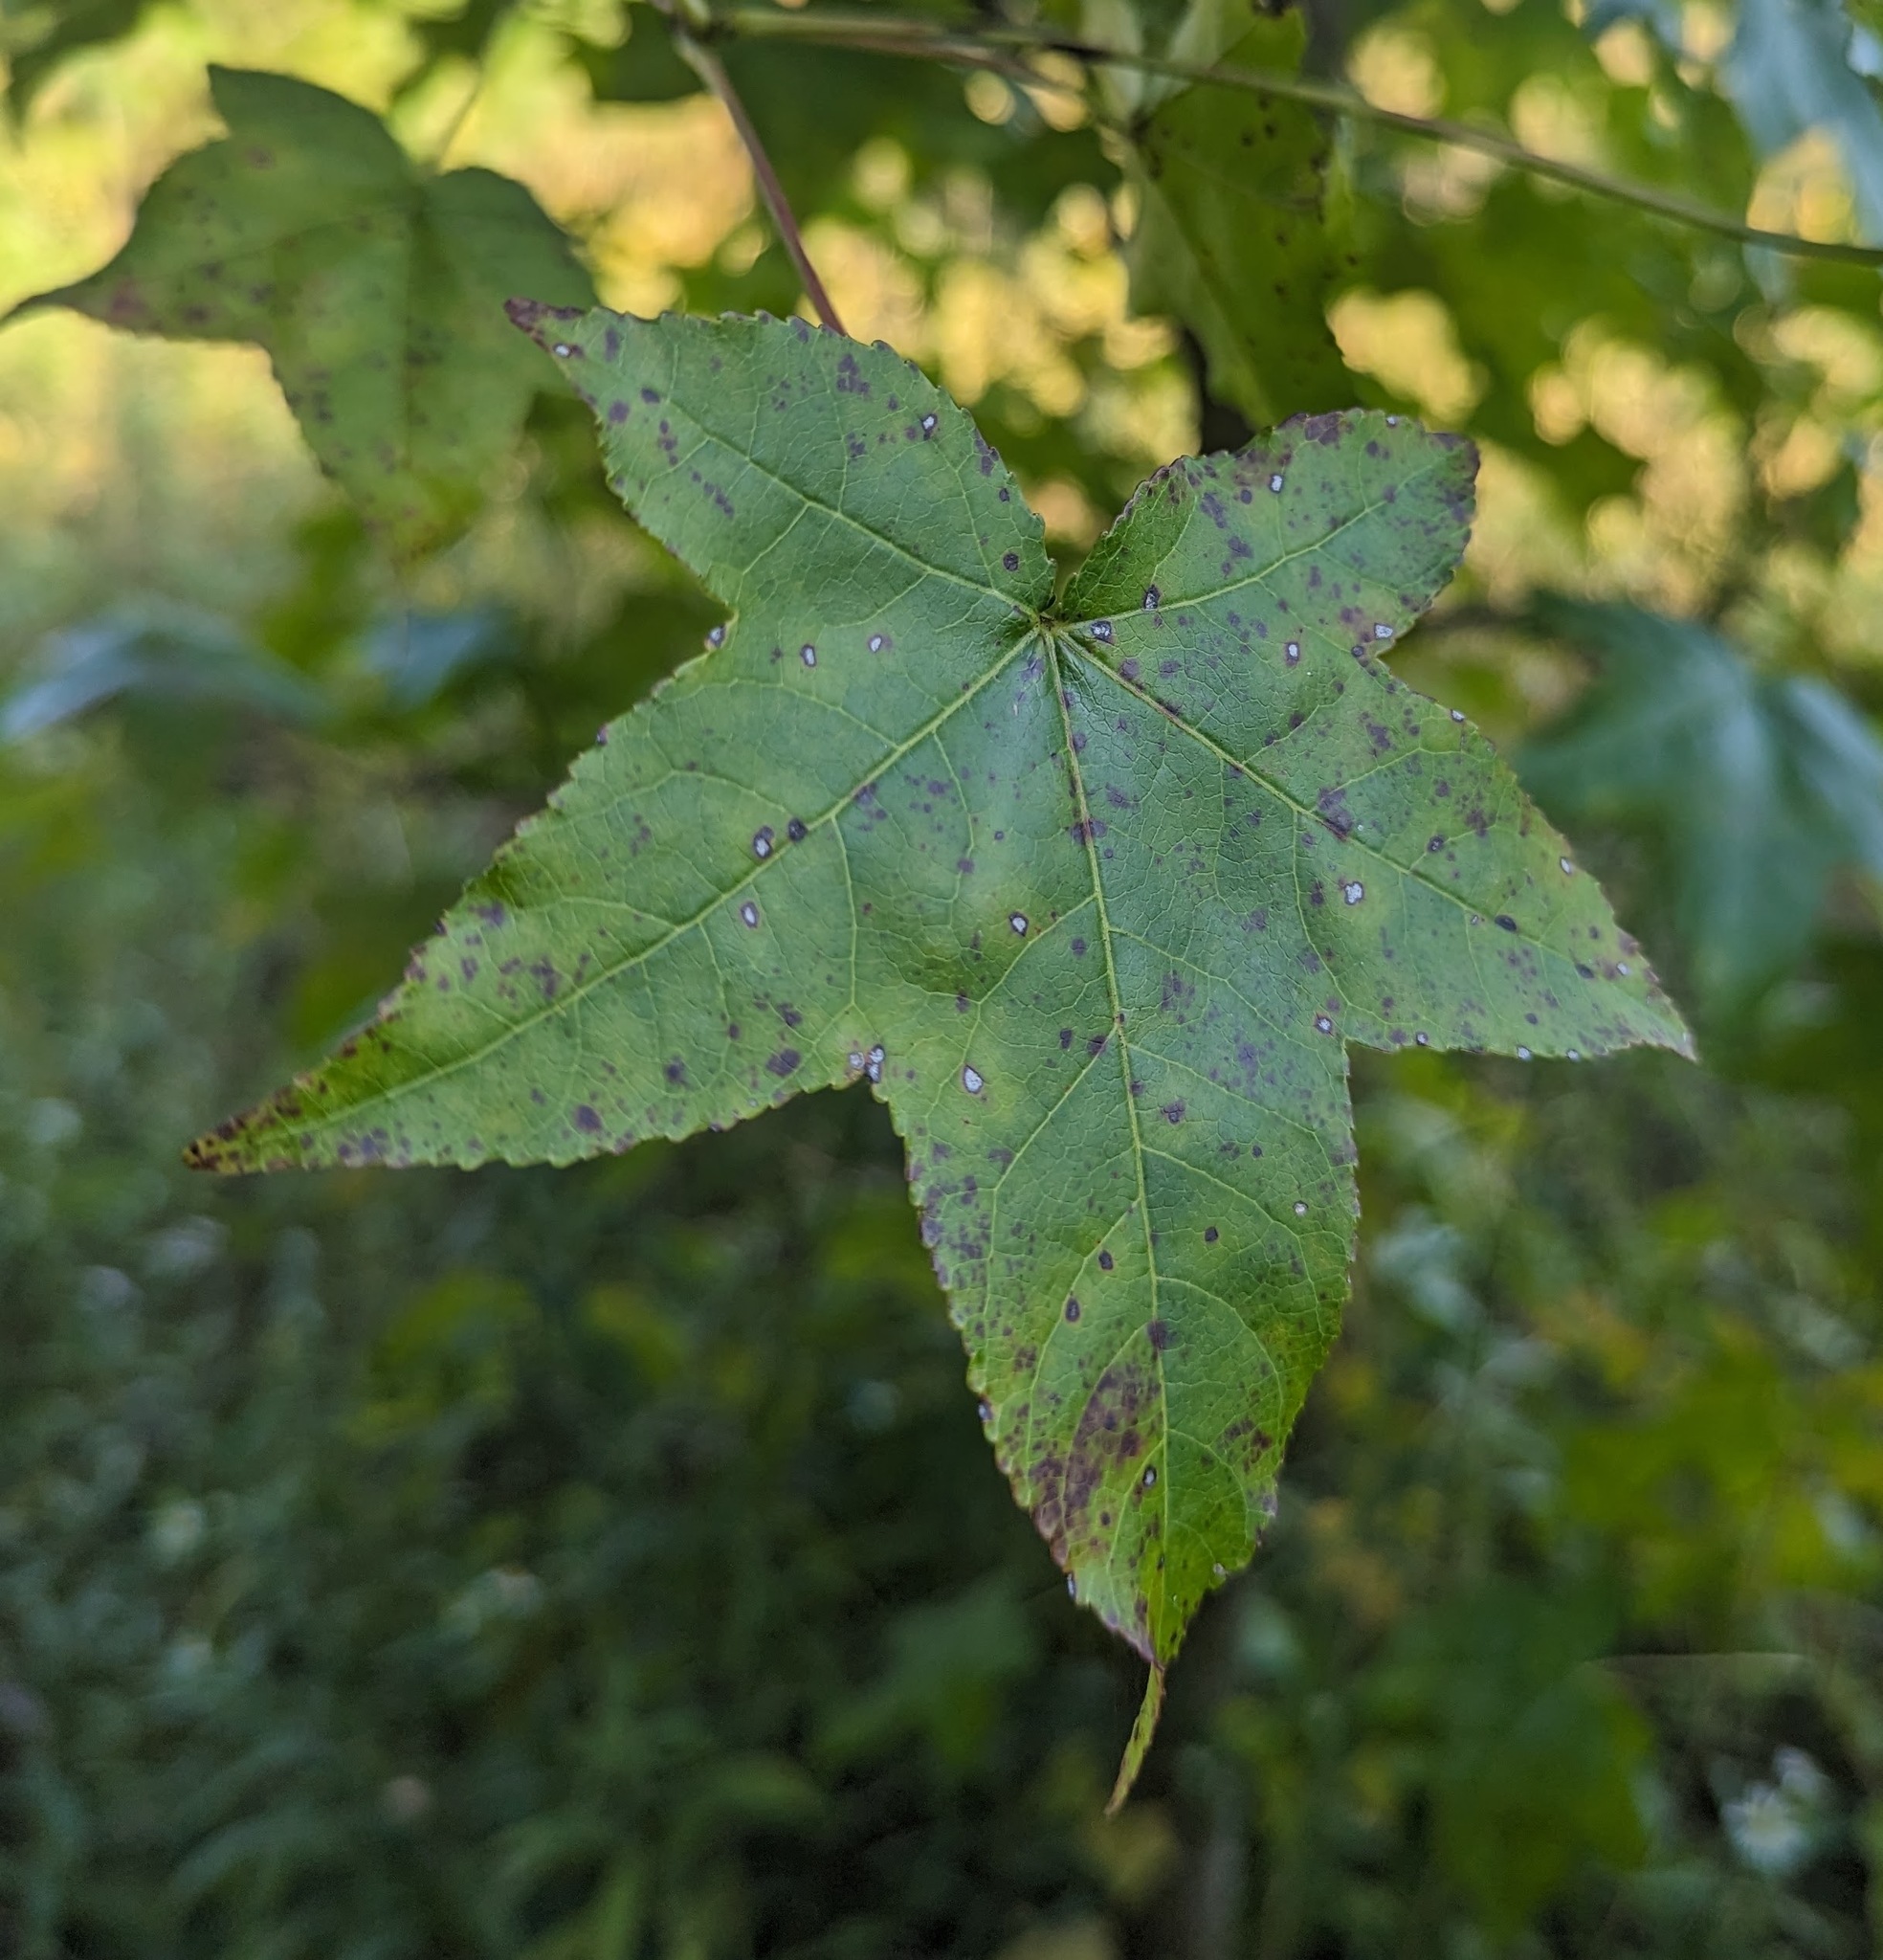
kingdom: Plantae
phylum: Tracheophyta
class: Magnoliopsida
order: Saxifragales
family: Altingiaceae
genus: Liquidambar
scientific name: Liquidambar styraciflua
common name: Sweet gum
